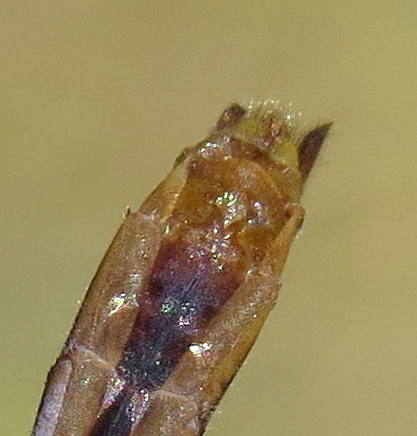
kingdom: Animalia
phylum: Arthropoda
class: Insecta
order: Odonata
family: Libellulidae
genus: Sympetrum
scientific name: Sympetrum internum
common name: Cherry-faced meadowhawk
